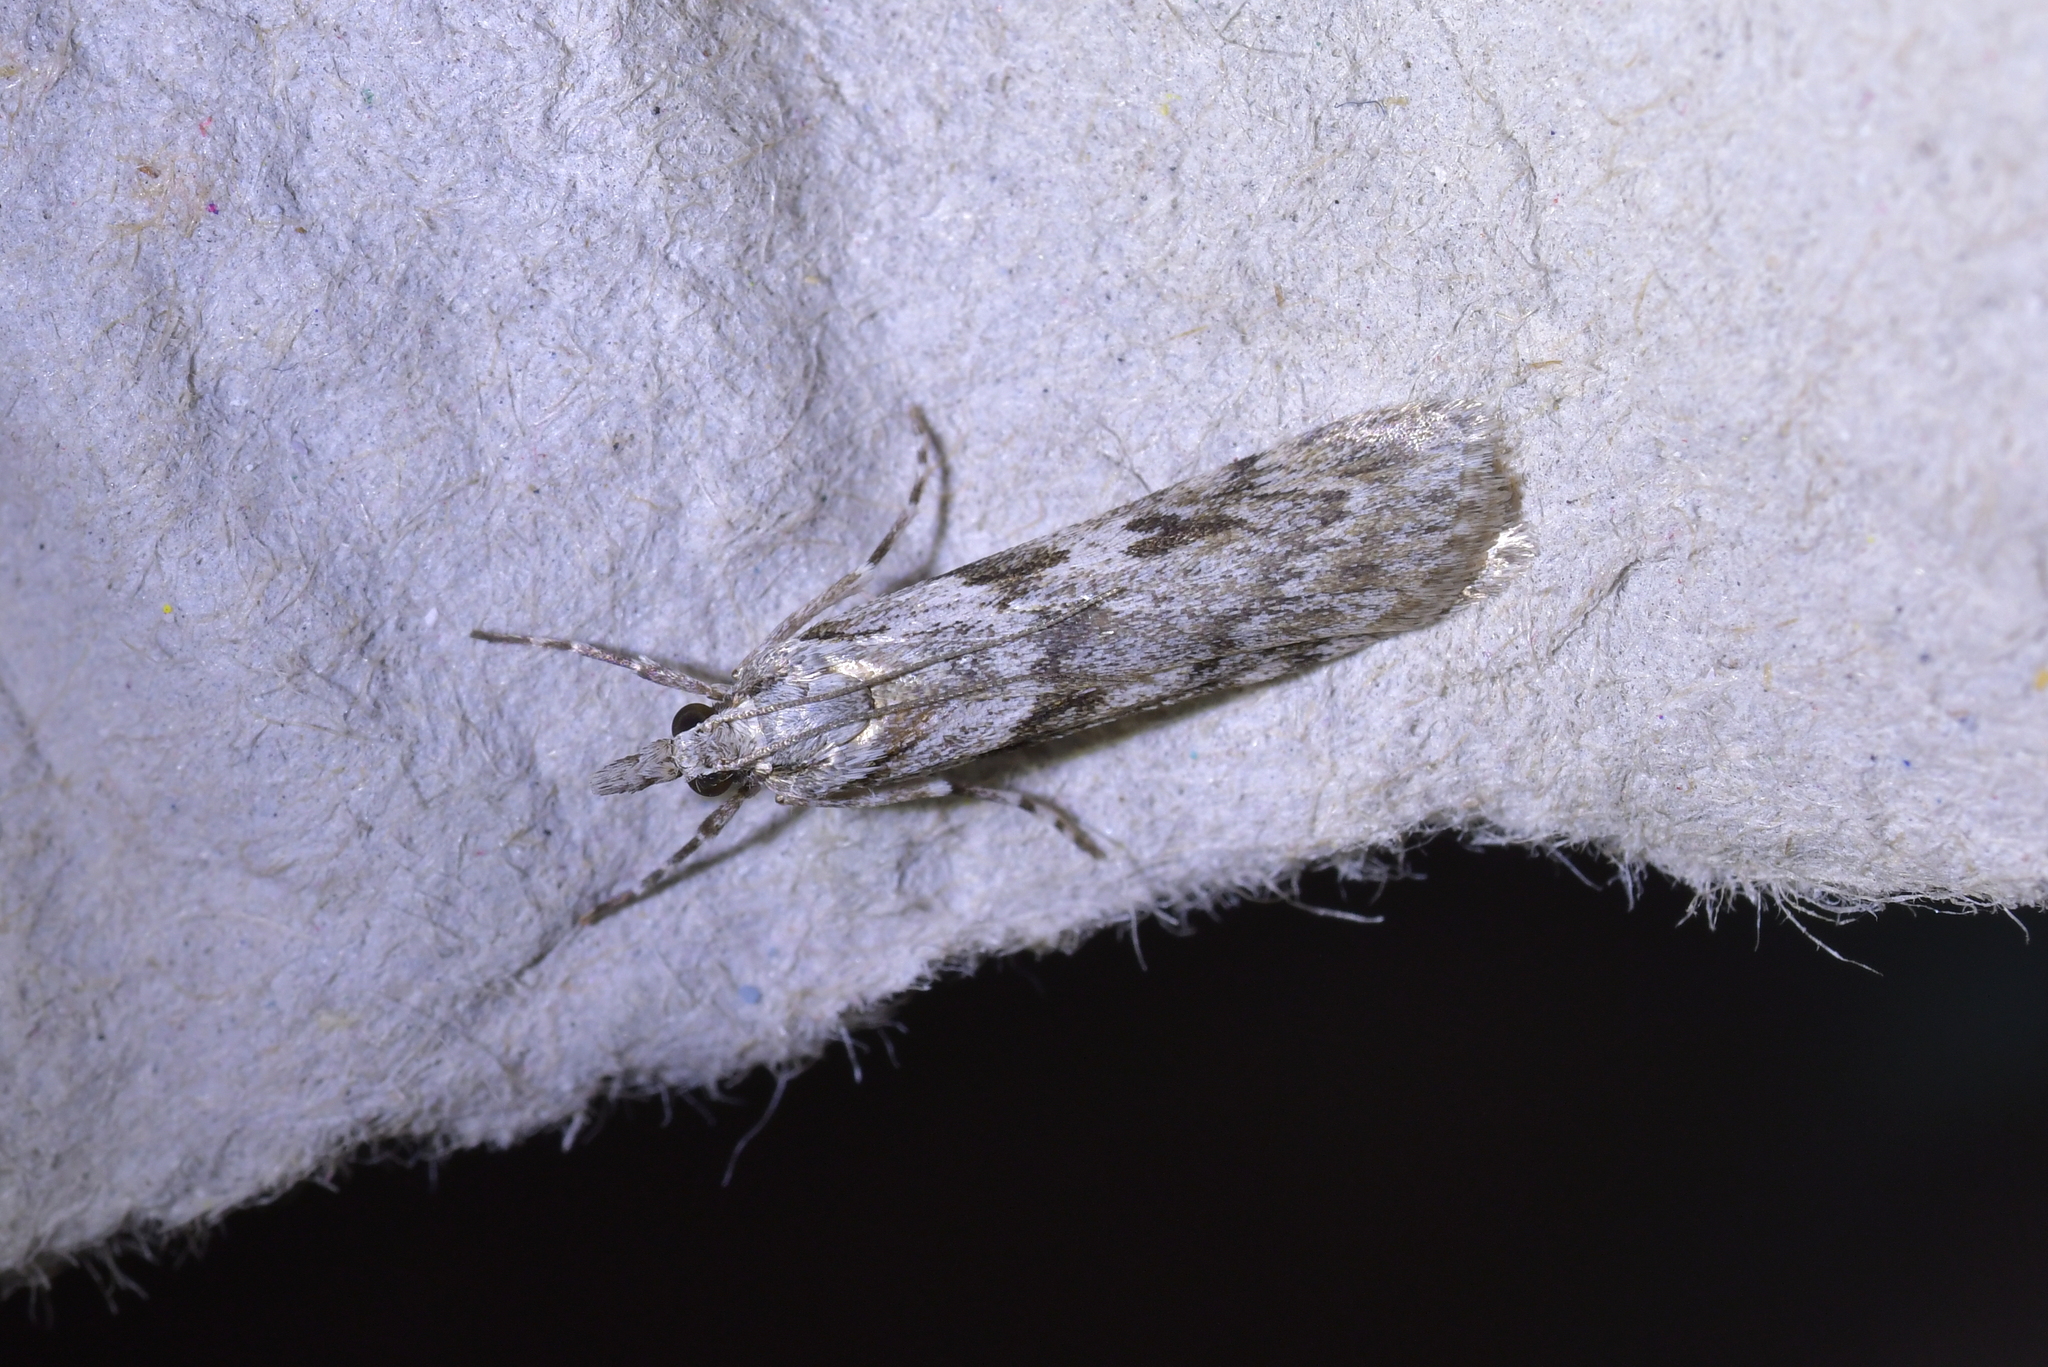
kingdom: Animalia
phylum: Arthropoda
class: Insecta
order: Lepidoptera
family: Crambidae
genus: Scoparia
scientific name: Scoparia halopis
